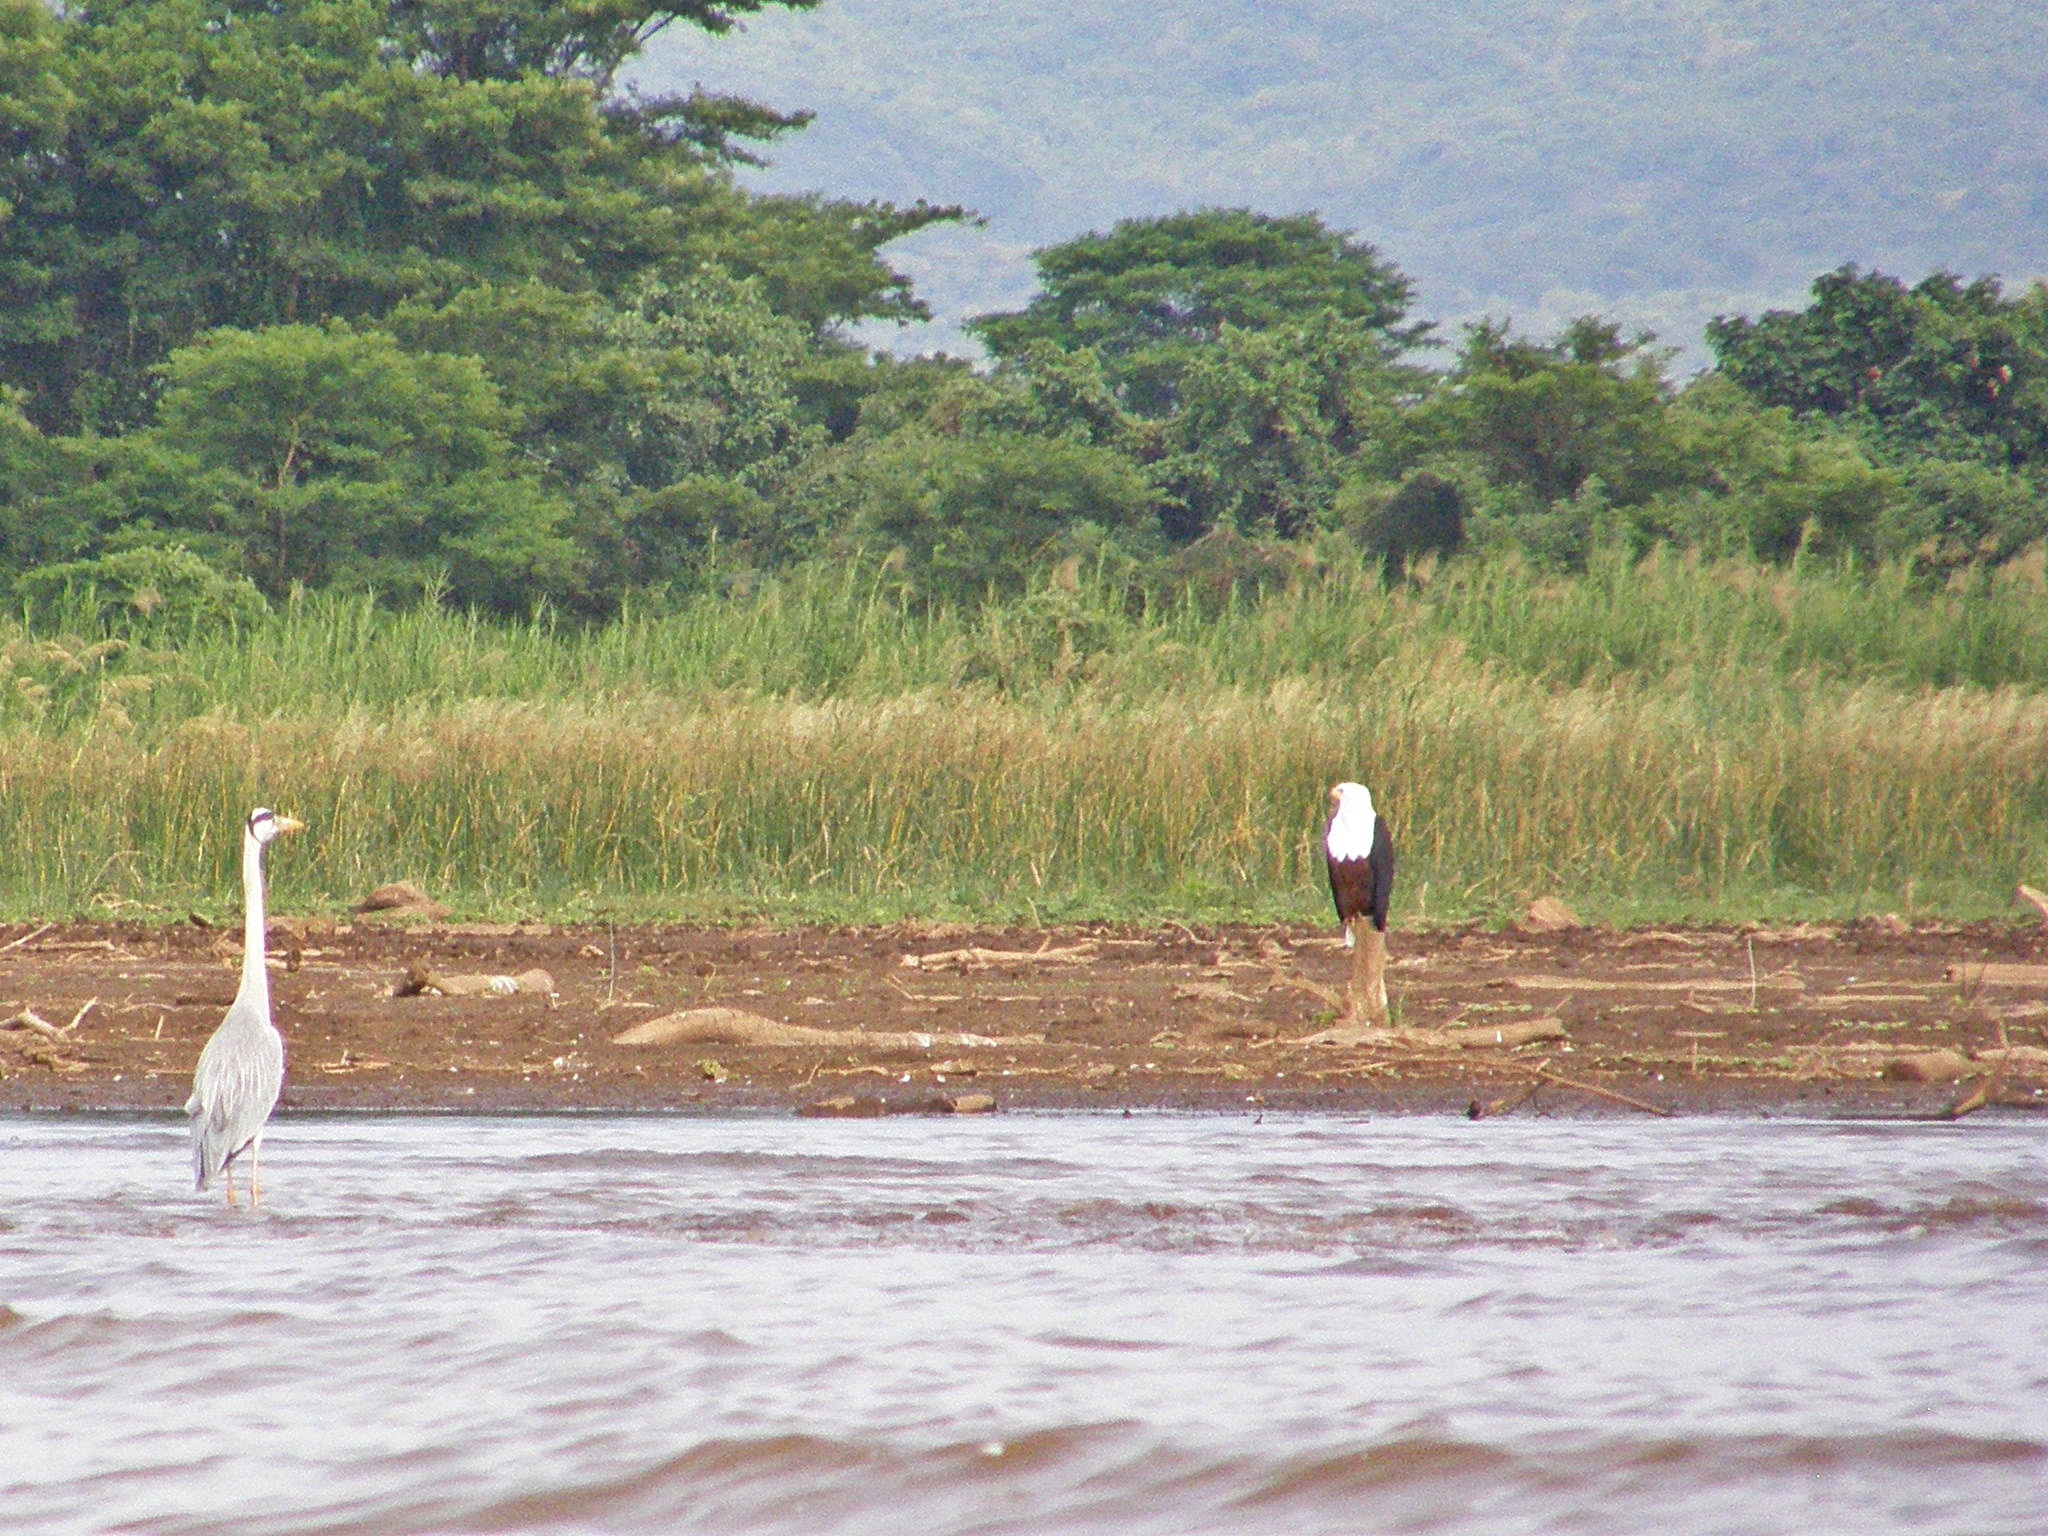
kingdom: Animalia
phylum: Chordata
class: Aves
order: Accipitriformes
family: Accipitridae
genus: Haliaeetus
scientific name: Haliaeetus vocifer
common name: African fish eagle
